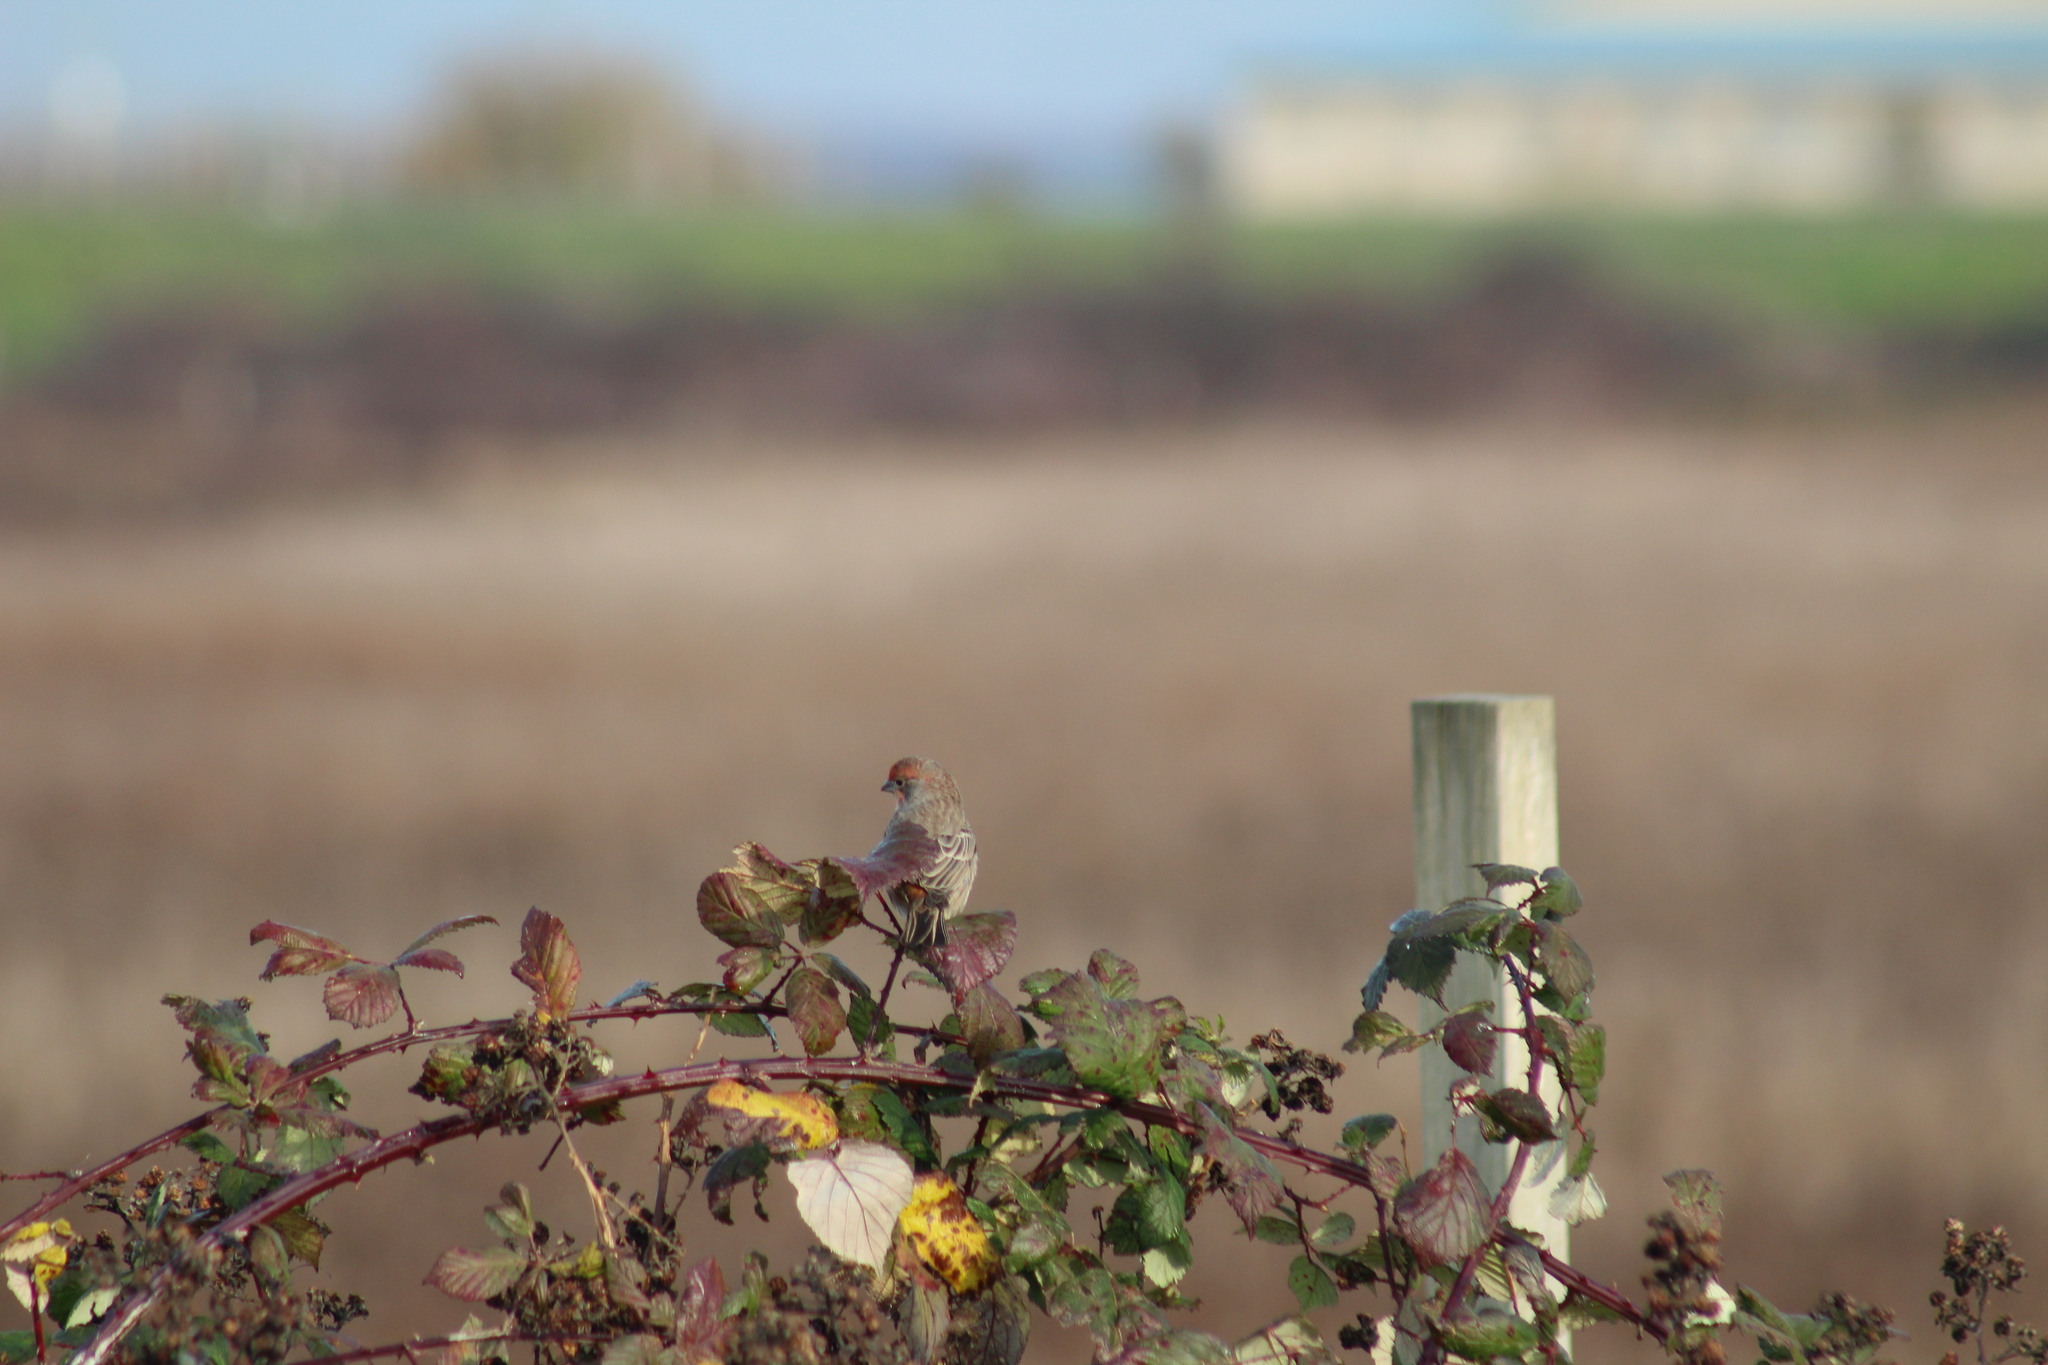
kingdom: Animalia
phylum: Chordata
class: Aves
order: Passeriformes
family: Fringillidae
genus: Haemorhous
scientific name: Haemorhous mexicanus
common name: House finch
